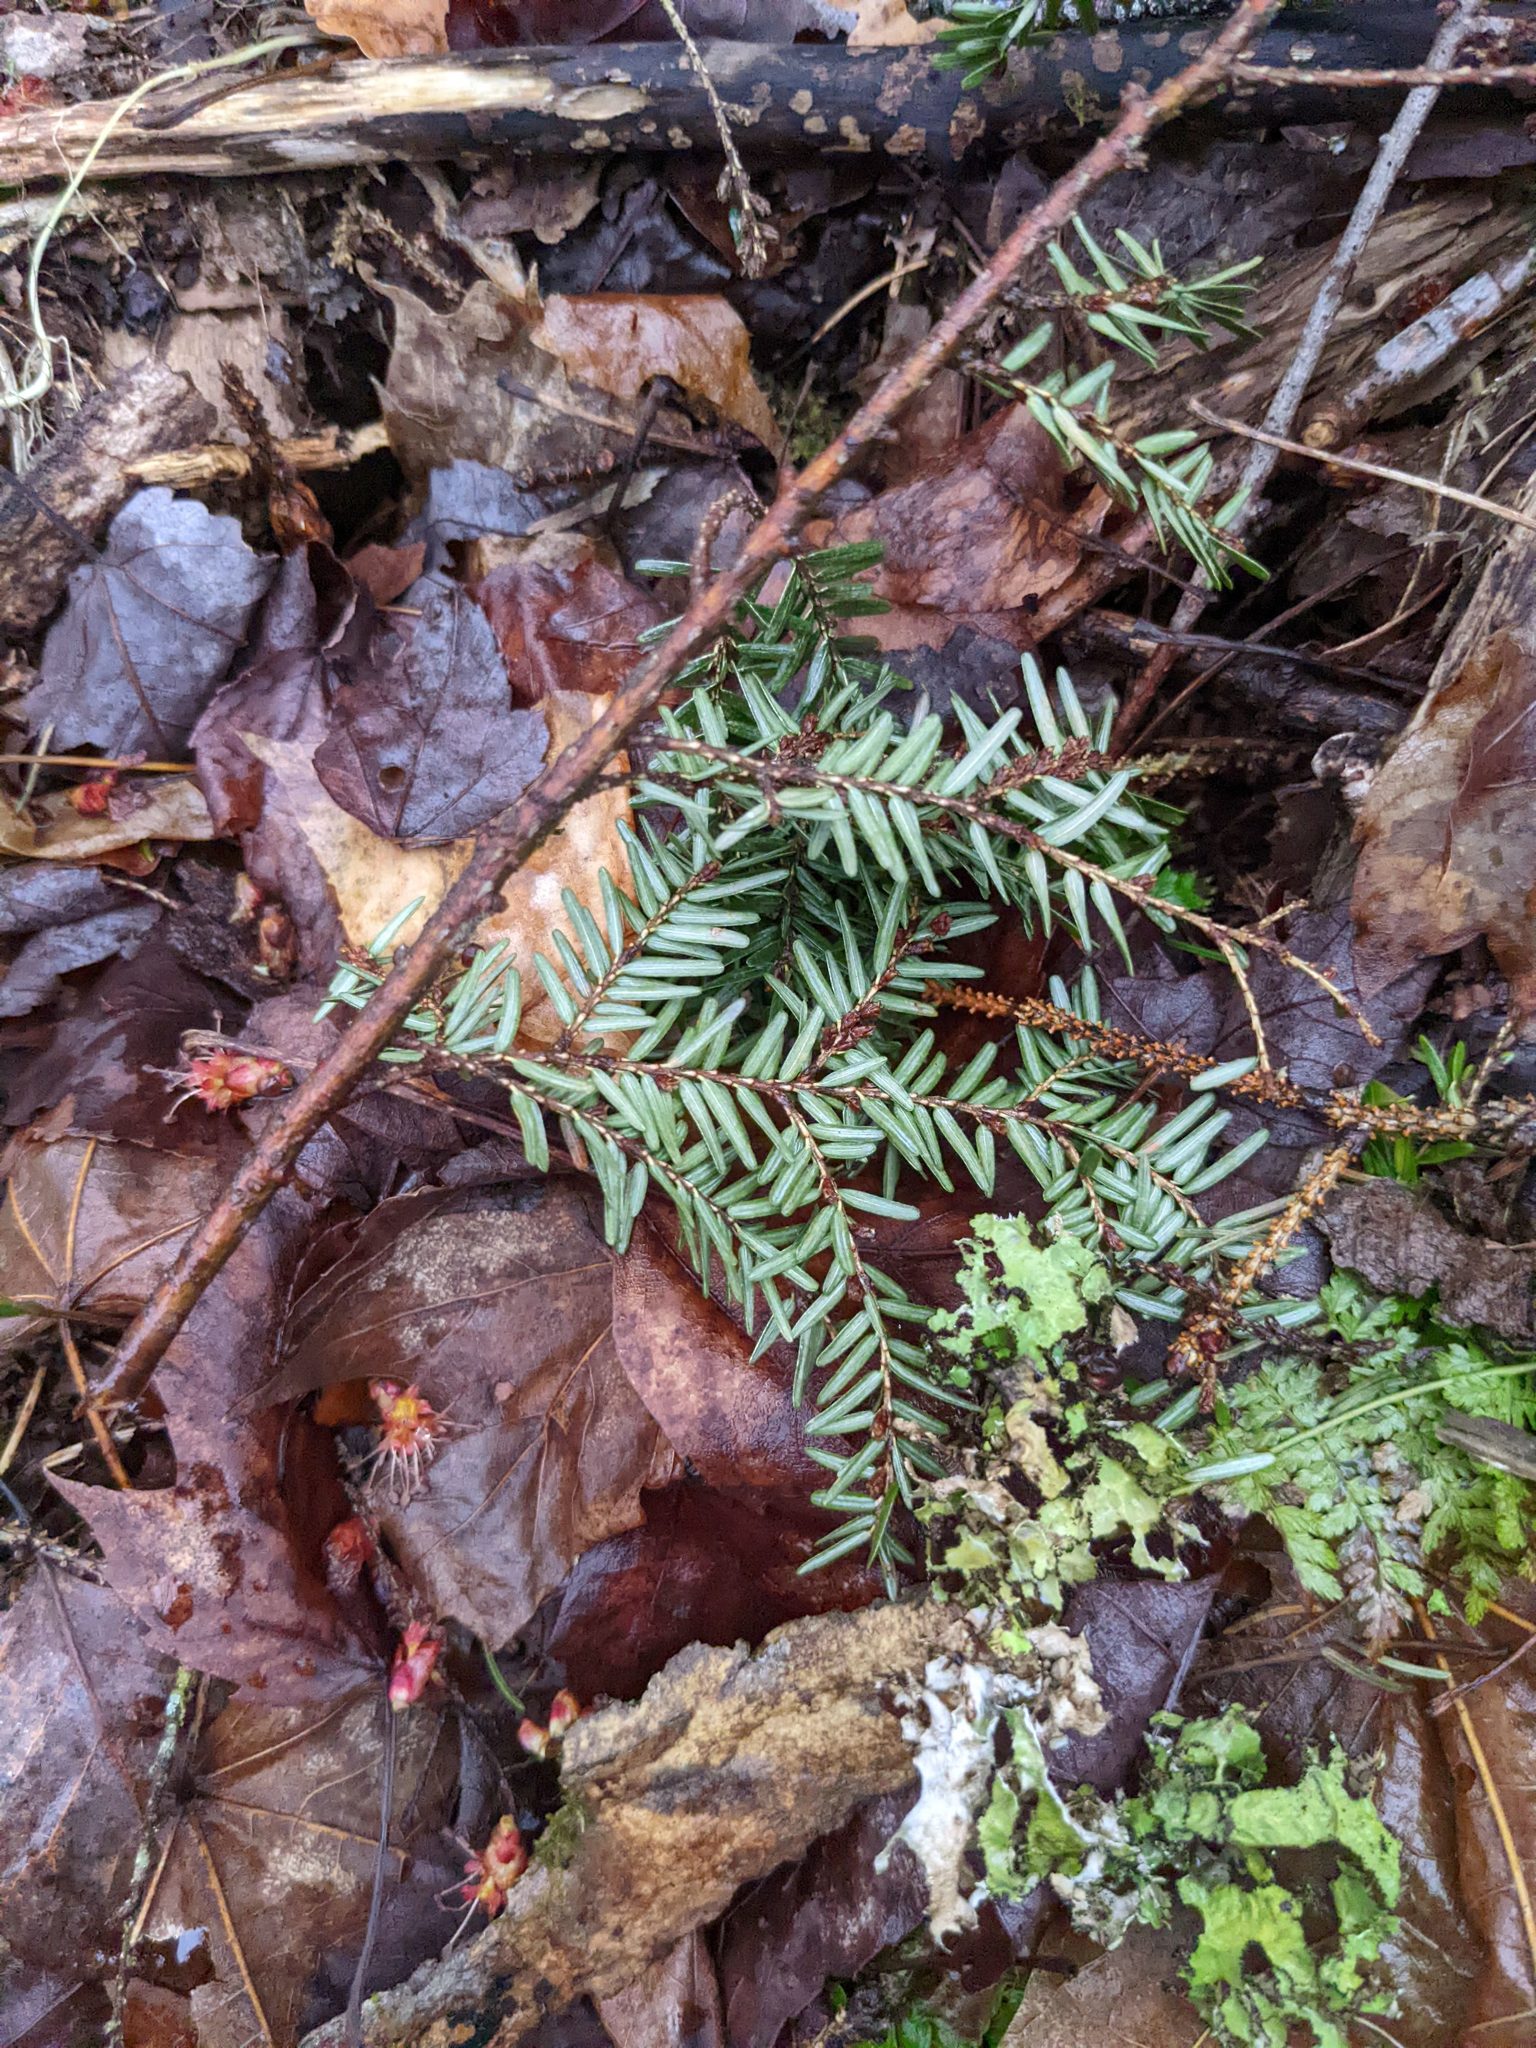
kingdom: Plantae
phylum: Tracheophyta
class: Pinopsida
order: Pinales
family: Pinaceae
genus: Tsuga
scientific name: Tsuga canadensis
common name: Eastern hemlock
